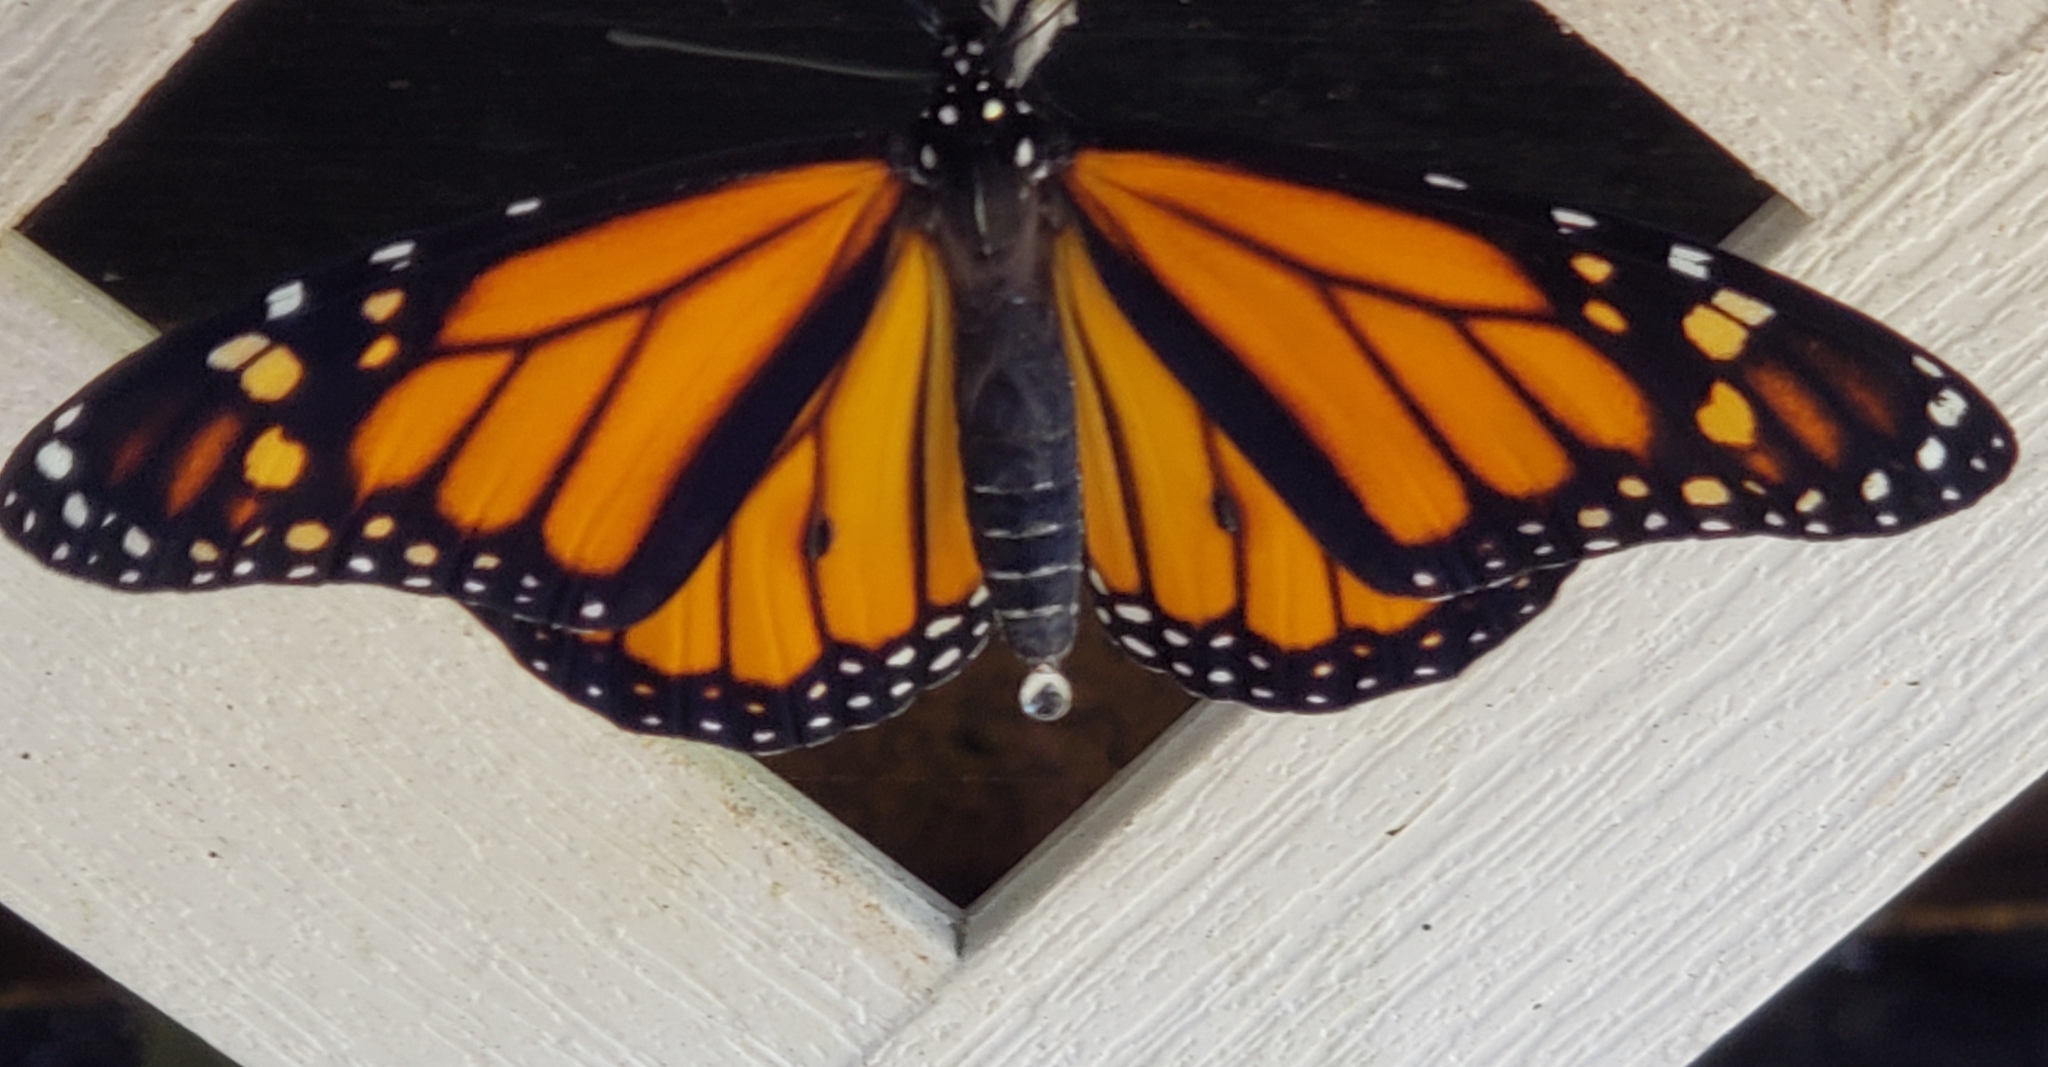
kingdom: Animalia
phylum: Arthropoda
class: Insecta
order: Lepidoptera
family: Nymphalidae
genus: Danaus
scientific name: Danaus plexippus
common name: Monarch
